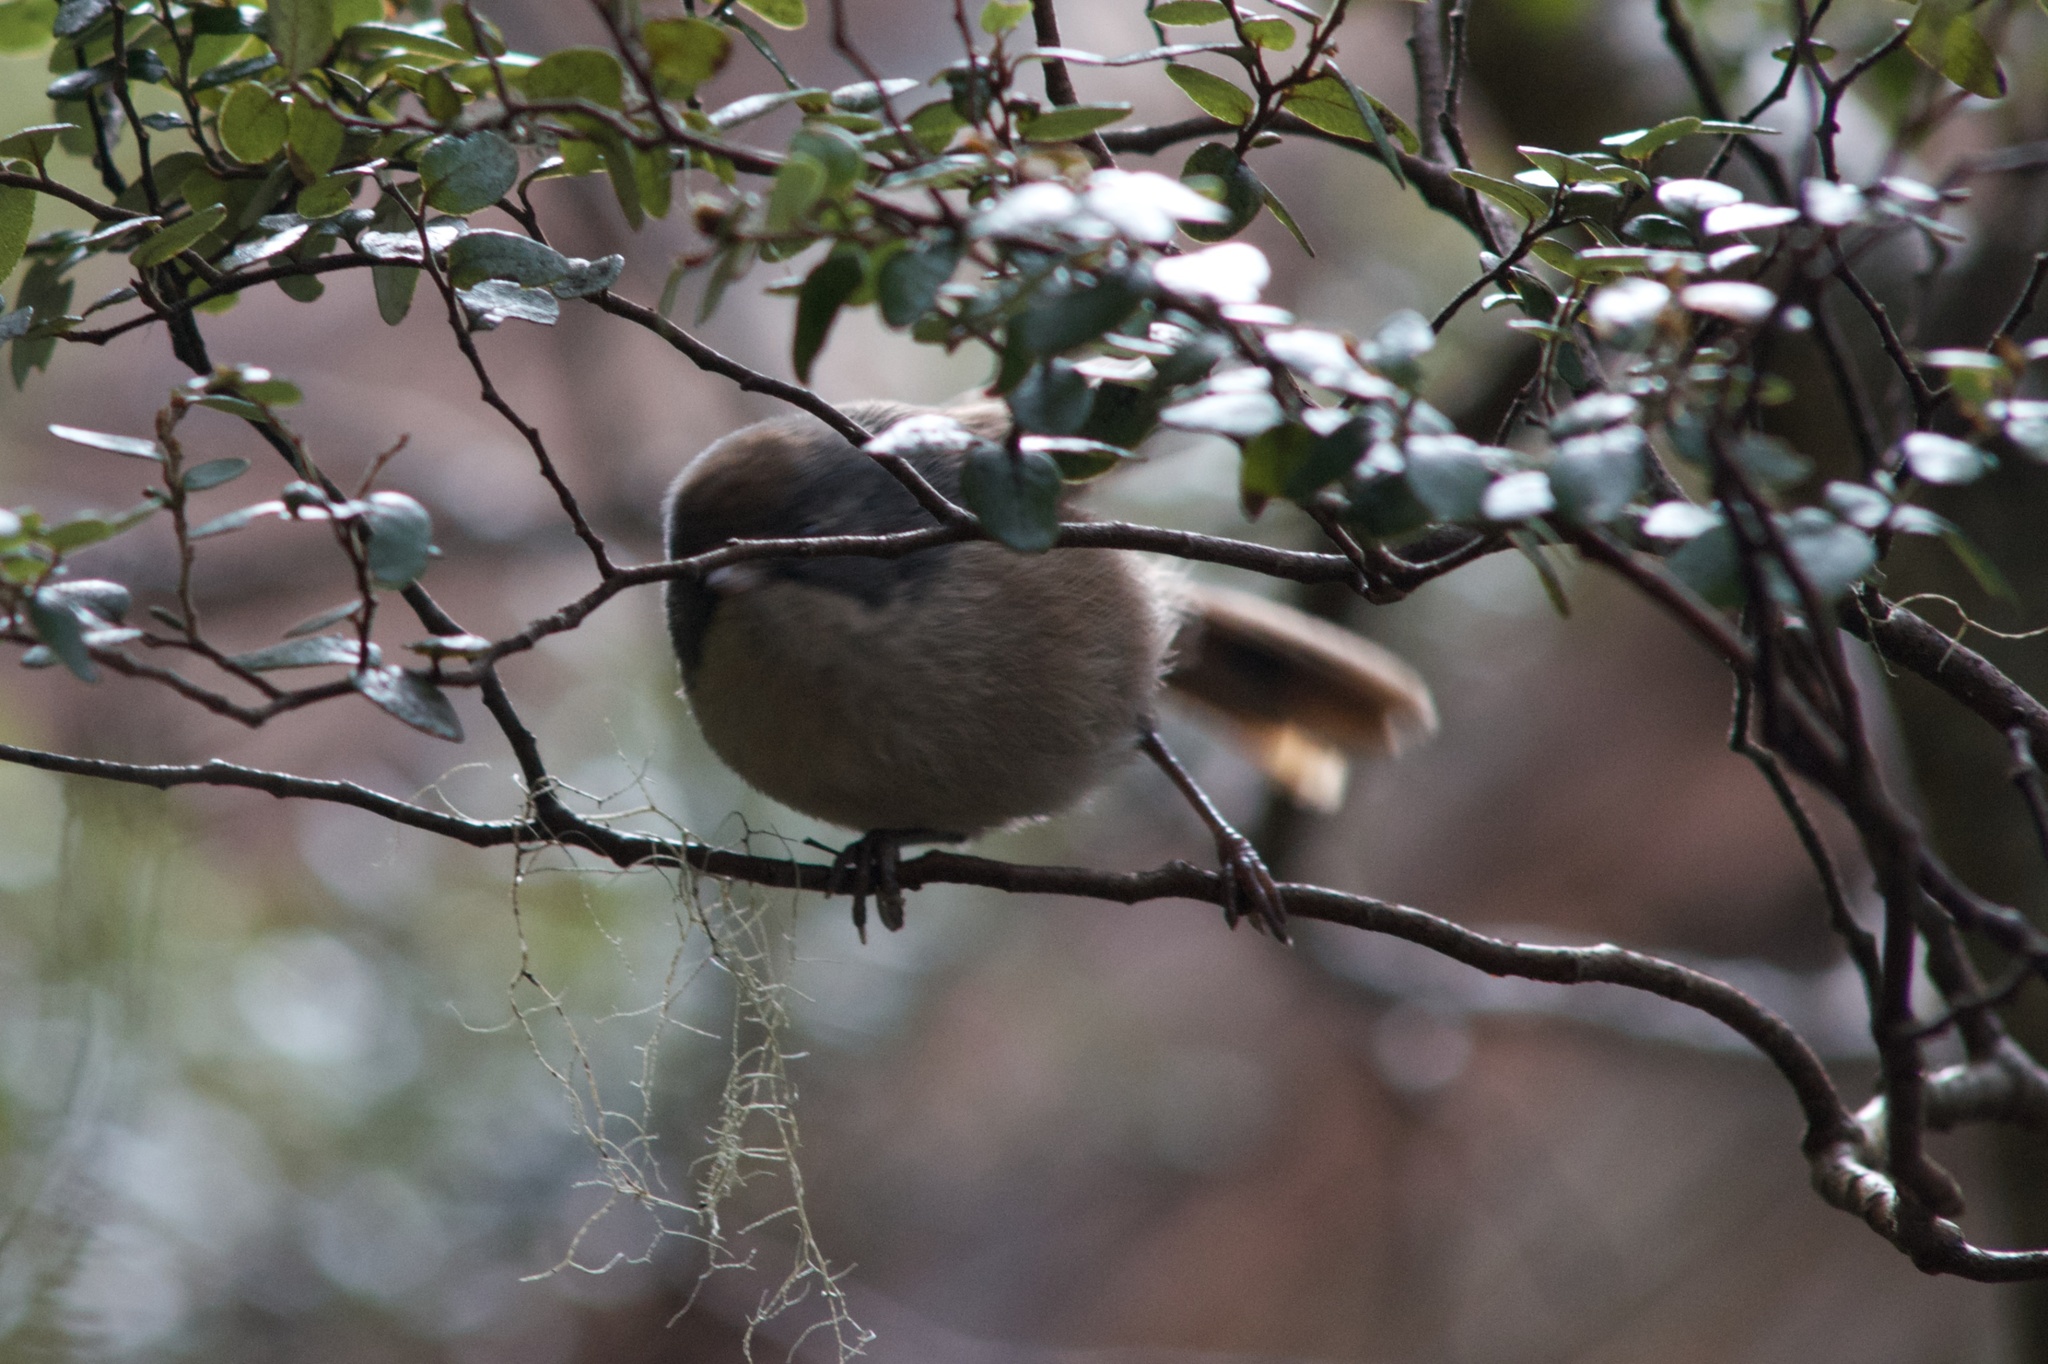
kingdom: Animalia
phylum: Chordata
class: Aves
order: Passeriformes
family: Acanthizidae
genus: Finschia
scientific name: Finschia novaeseelandiae
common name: Pipipi
